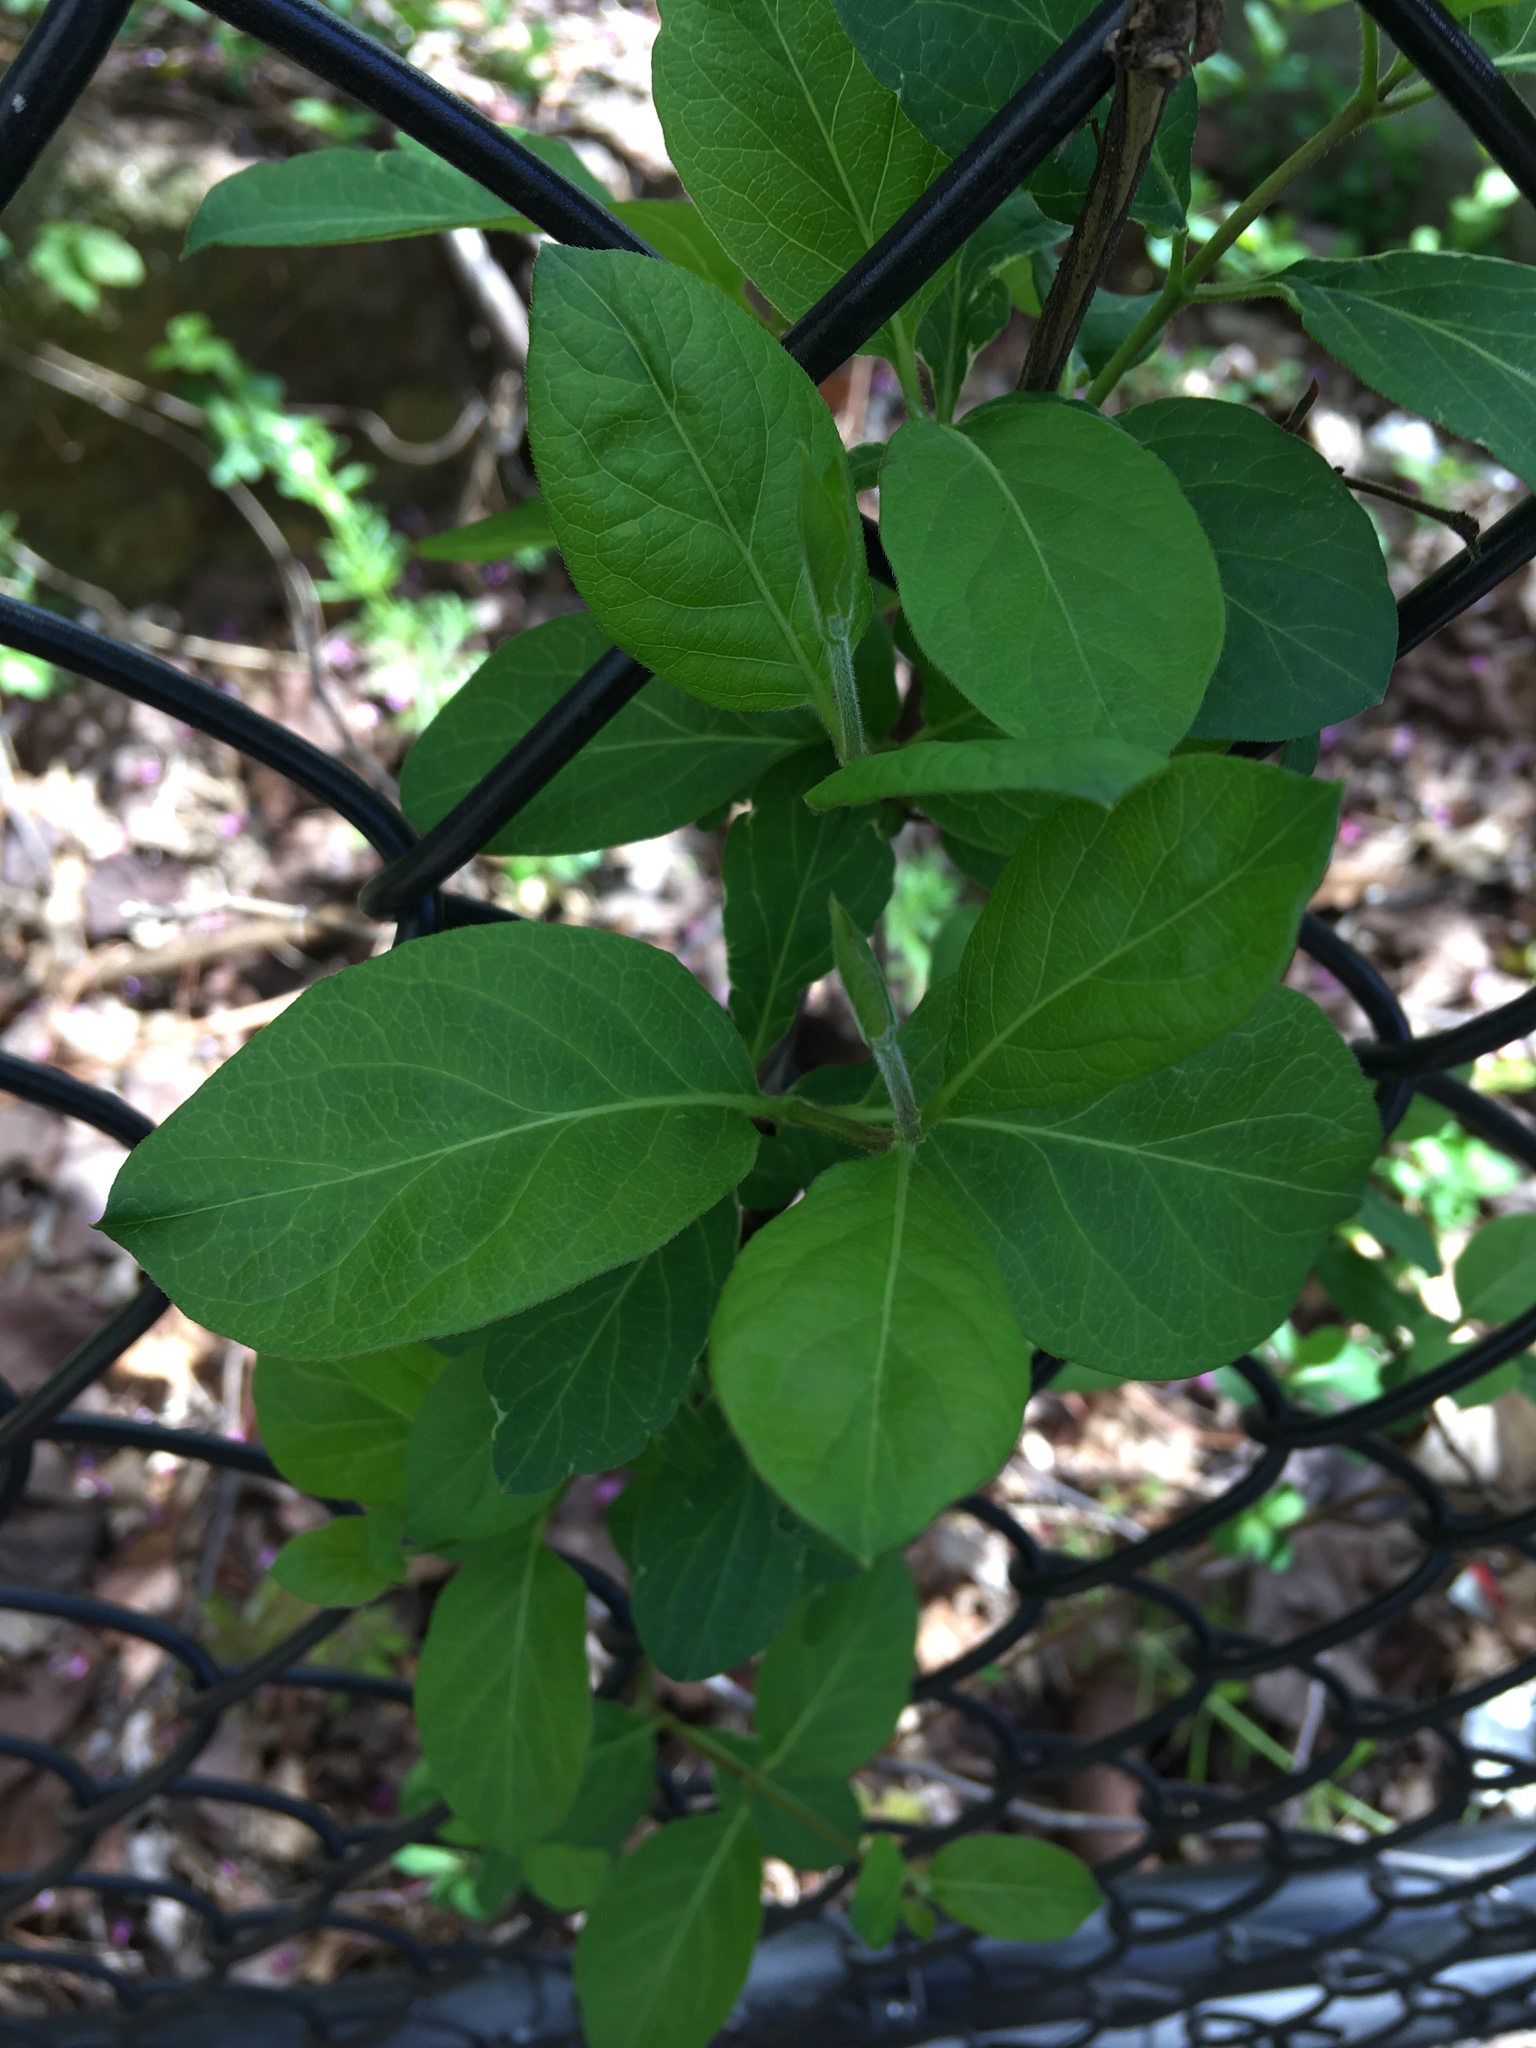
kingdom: Plantae
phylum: Tracheophyta
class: Magnoliopsida
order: Dipsacales
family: Caprifoliaceae
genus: Lonicera
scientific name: Lonicera japonica
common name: Japanese honeysuckle
